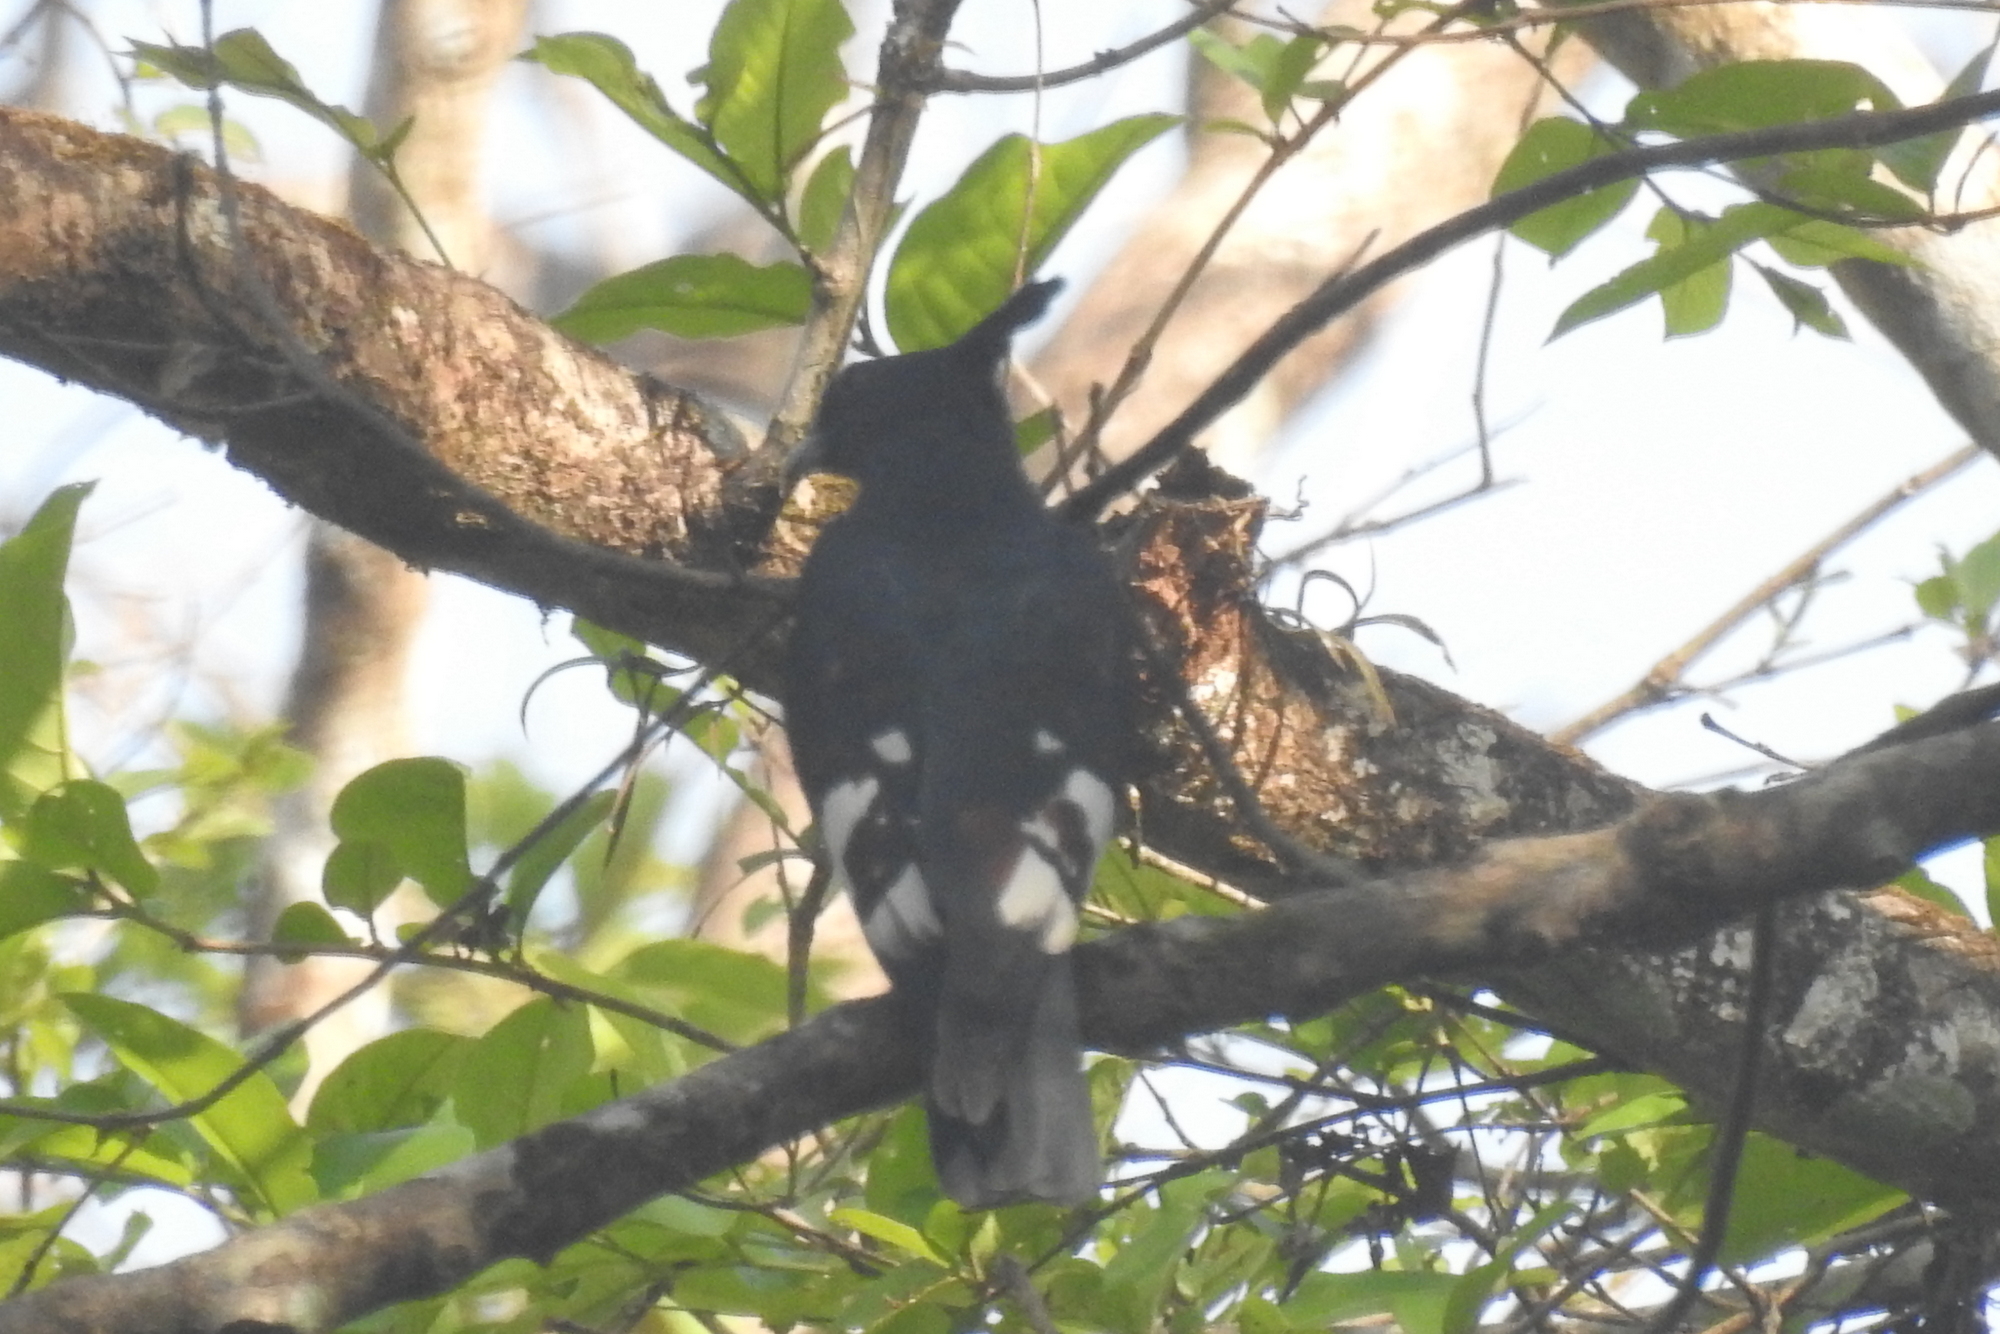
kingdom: Animalia
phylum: Chordata
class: Aves
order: Accipitriformes
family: Accipitridae
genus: Aviceda
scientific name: Aviceda leuphotes
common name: Black baza
